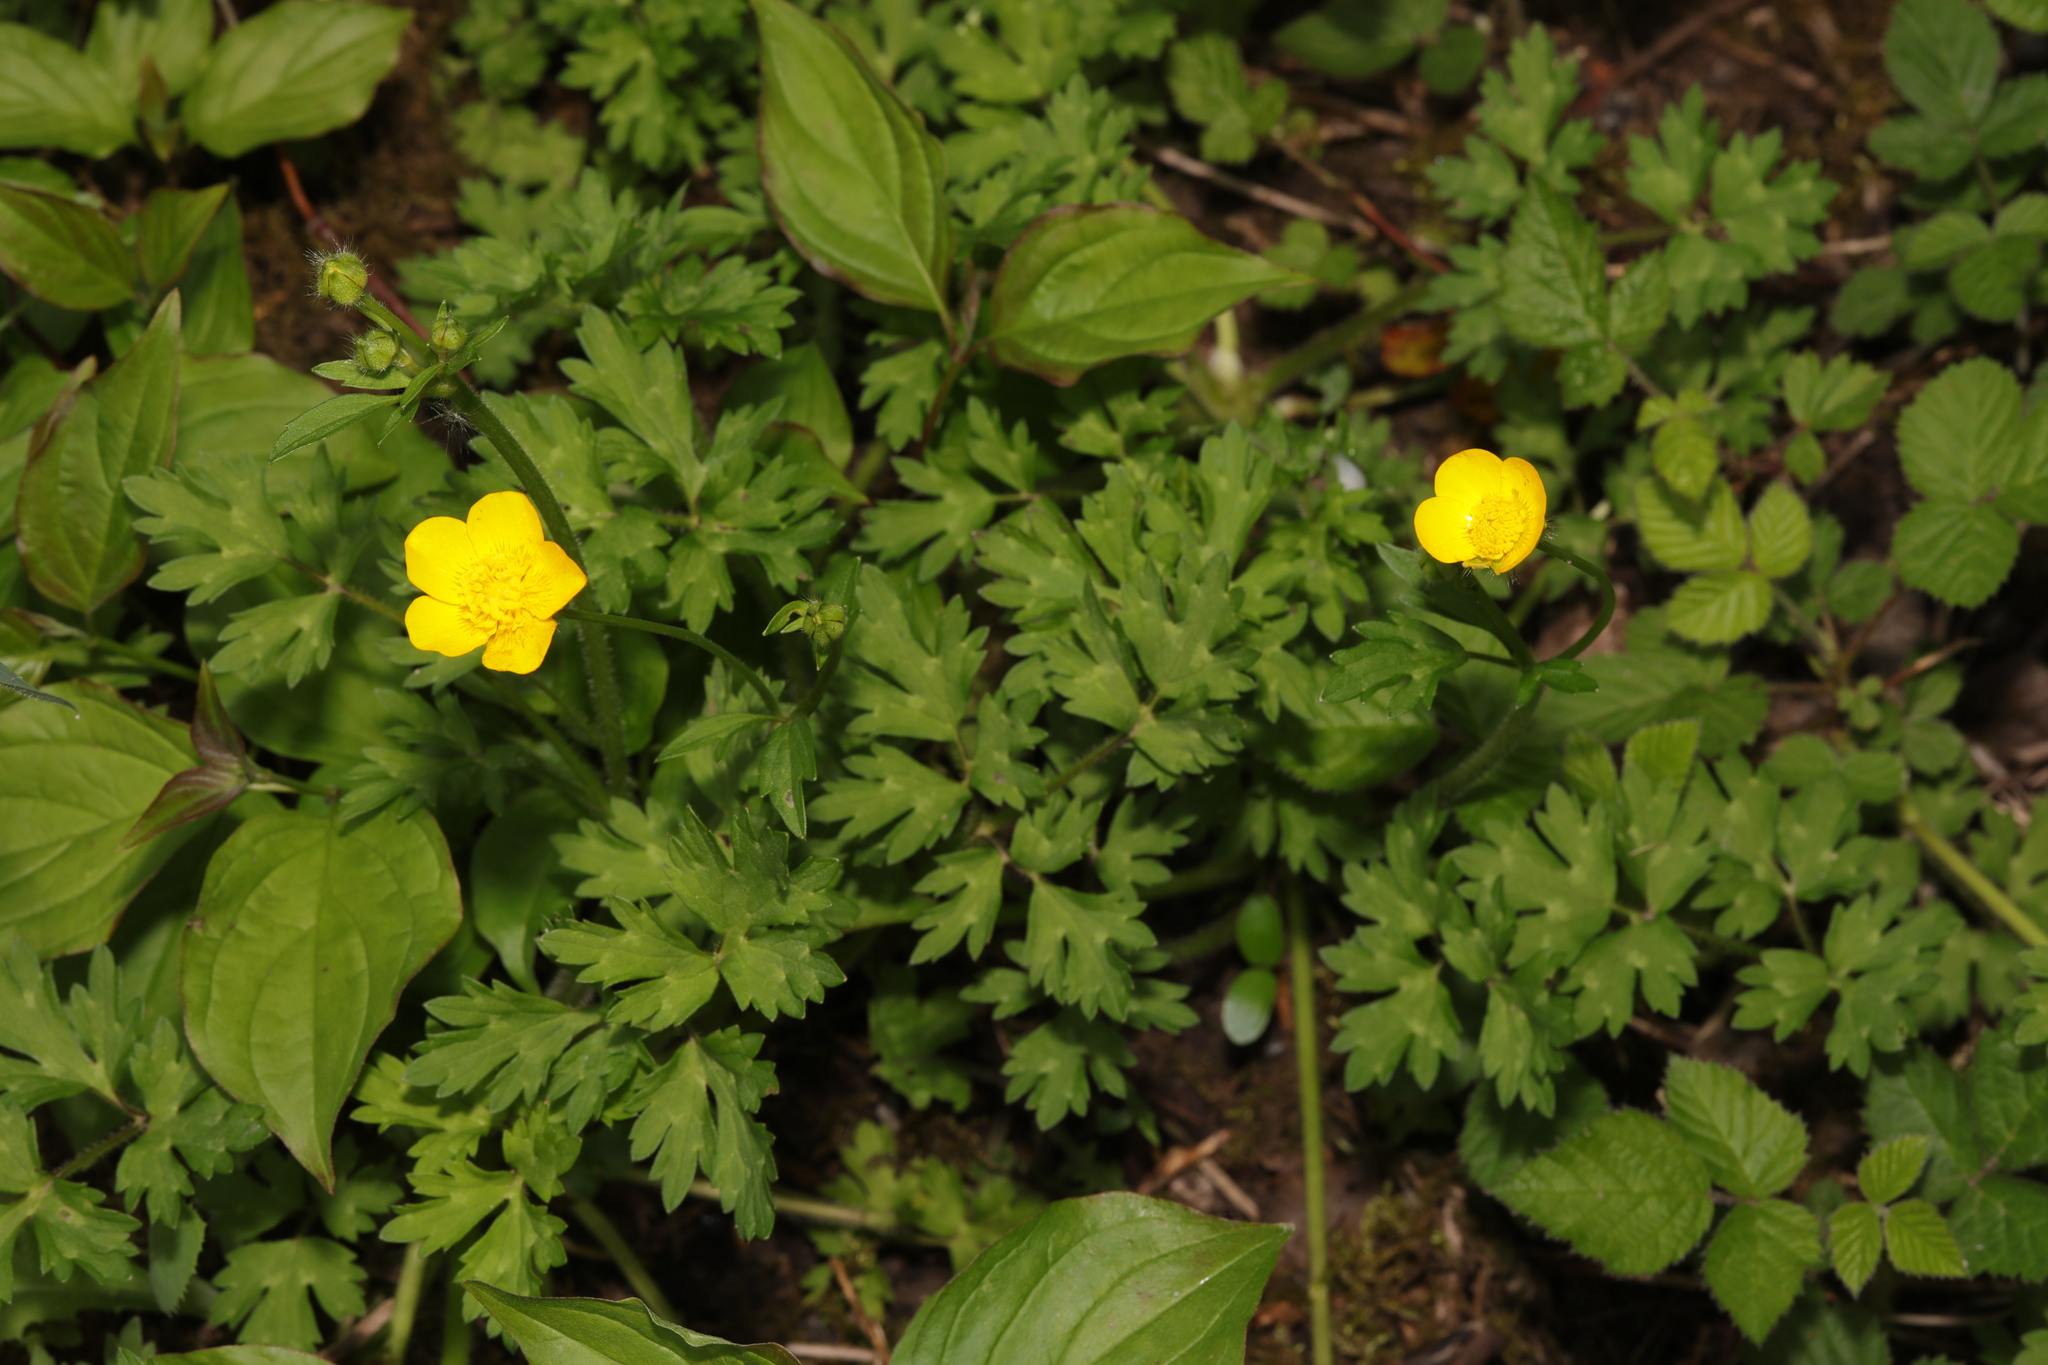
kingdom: Plantae
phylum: Tracheophyta
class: Magnoliopsida
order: Ranunculales
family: Ranunculaceae
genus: Ranunculus
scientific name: Ranunculus repens
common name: Creeping buttercup
